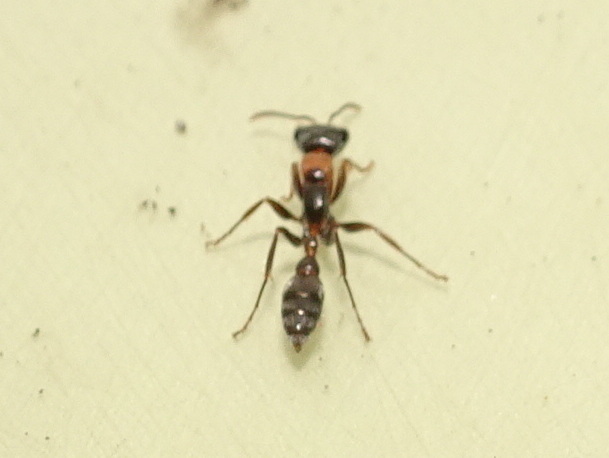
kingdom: Animalia
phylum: Arthropoda
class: Insecta
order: Hymenoptera
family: Formicidae
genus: Pseudomyrmex
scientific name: Pseudomyrmex gracilis
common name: Graceful twig ant
